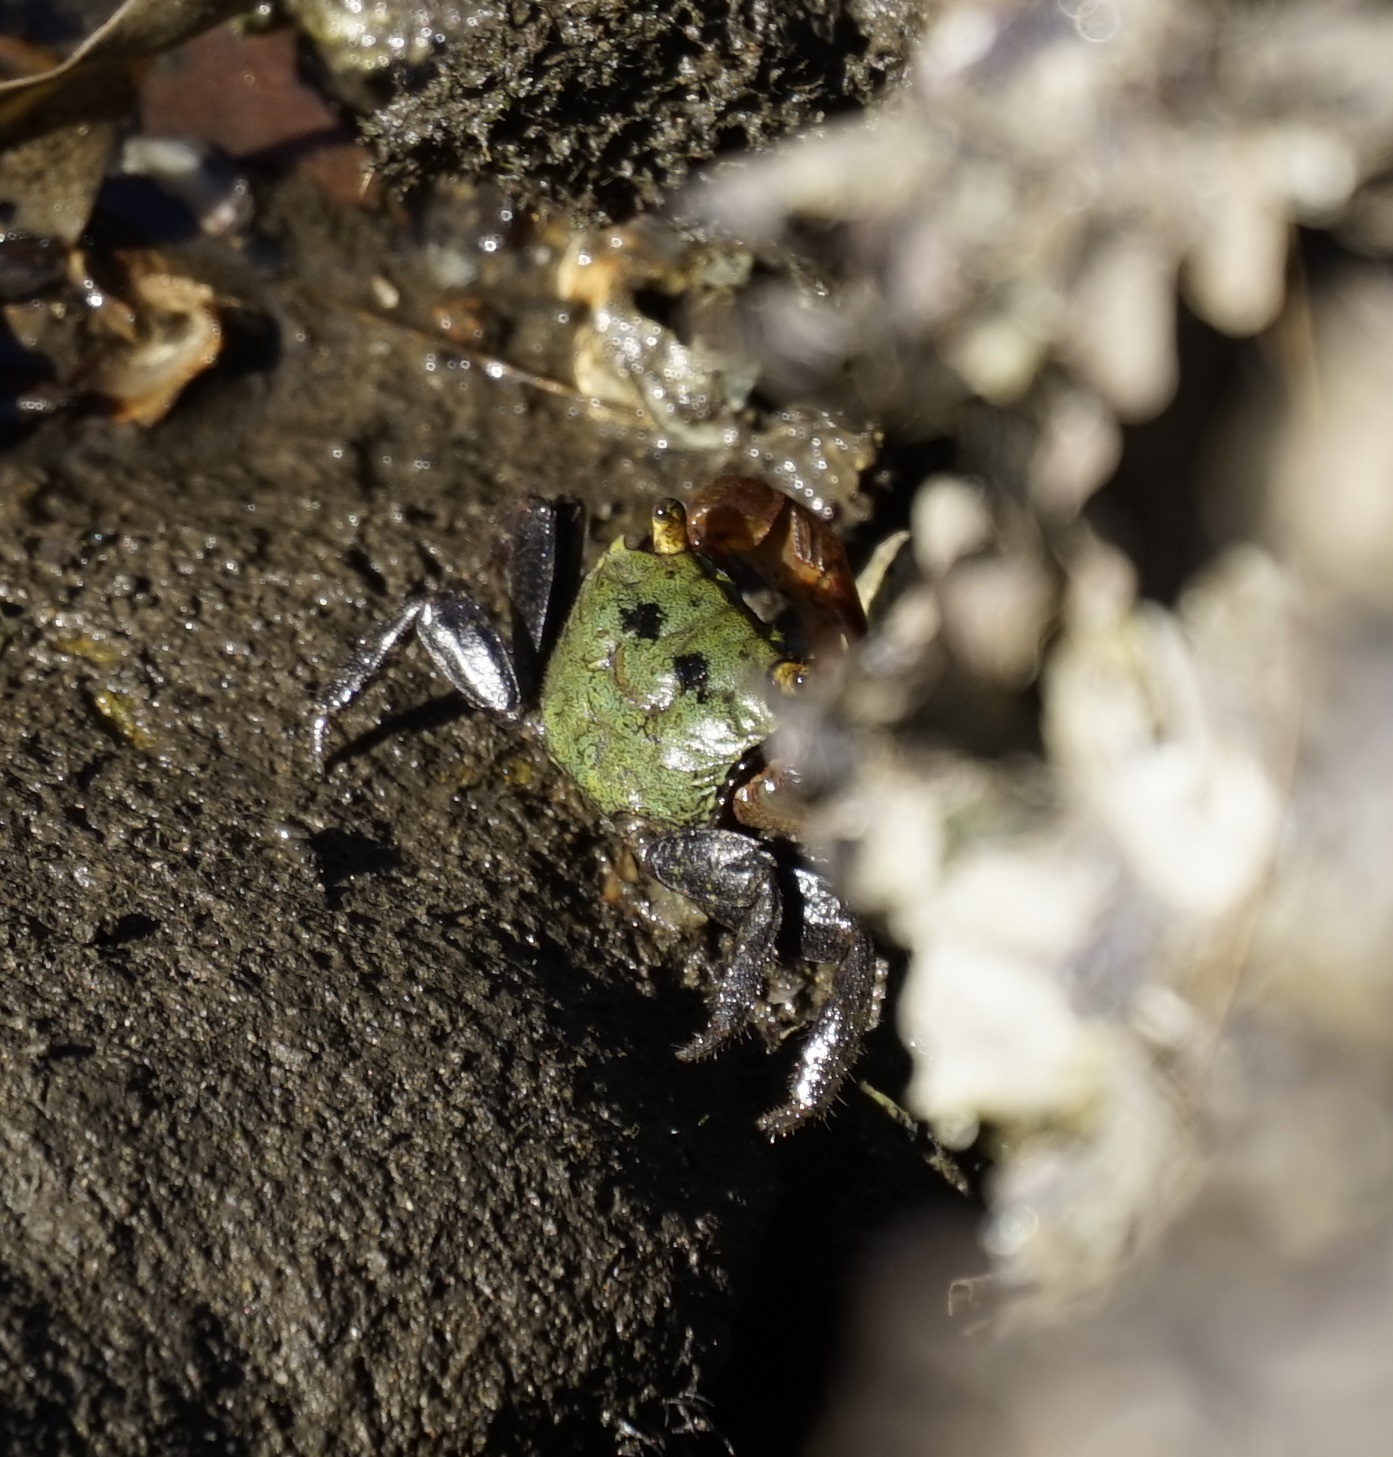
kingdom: Animalia
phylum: Arthropoda
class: Malacostraca
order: Decapoda
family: Sesarmidae
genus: Parasesarma
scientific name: Parasesarma erythodactylum
